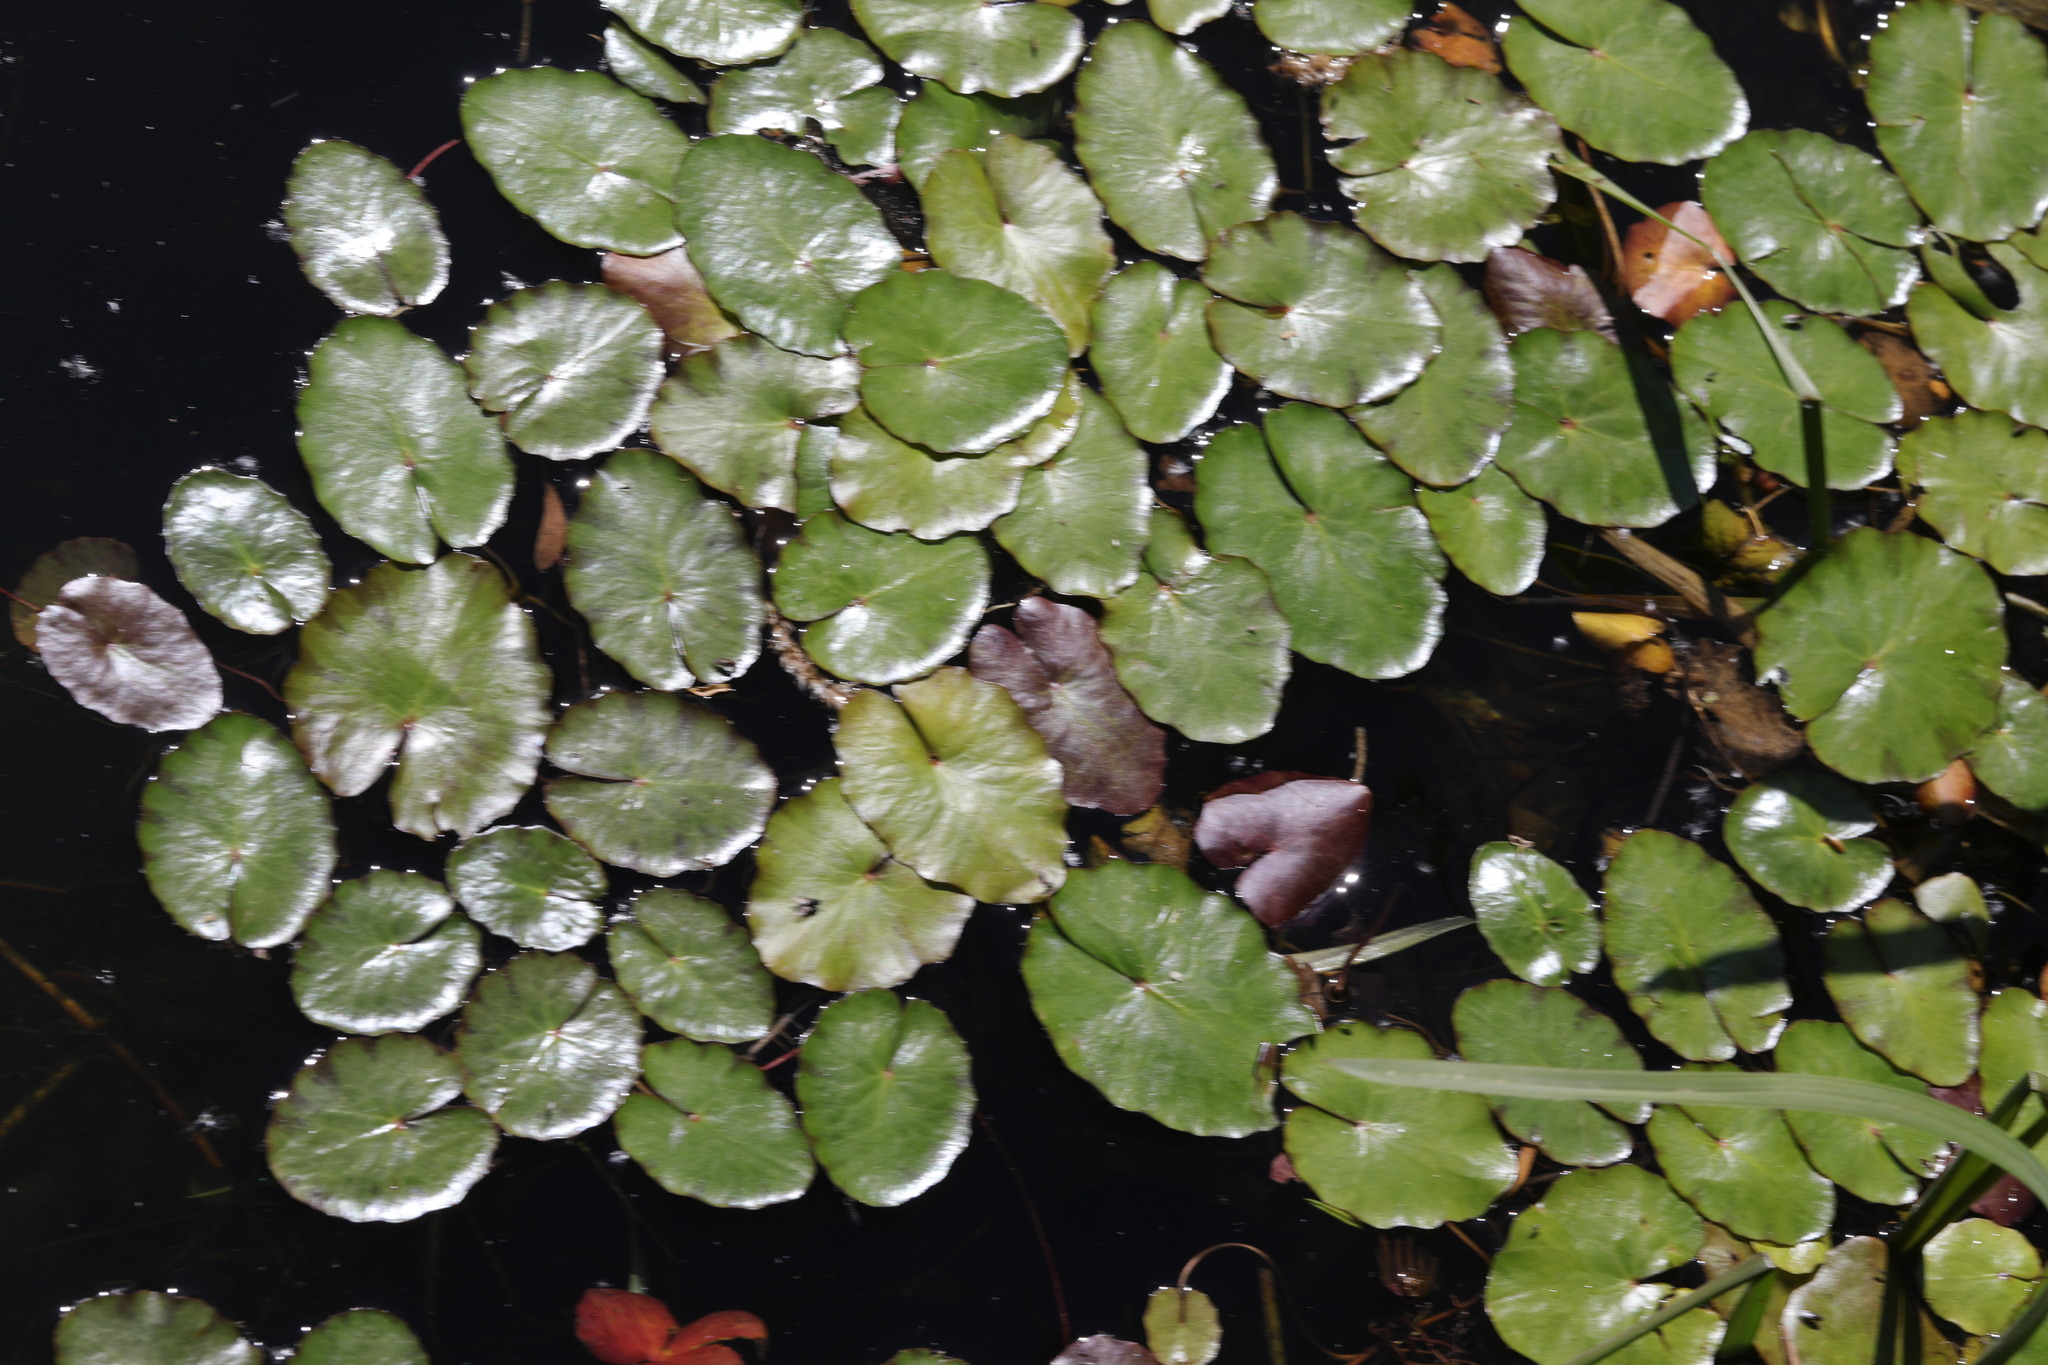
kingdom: Plantae
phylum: Tracheophyta
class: Magnoliopsida
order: Asterales
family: Menyanthaceae
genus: Nymphoides
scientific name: Nymphoides peltata
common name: Fringed water-lily
